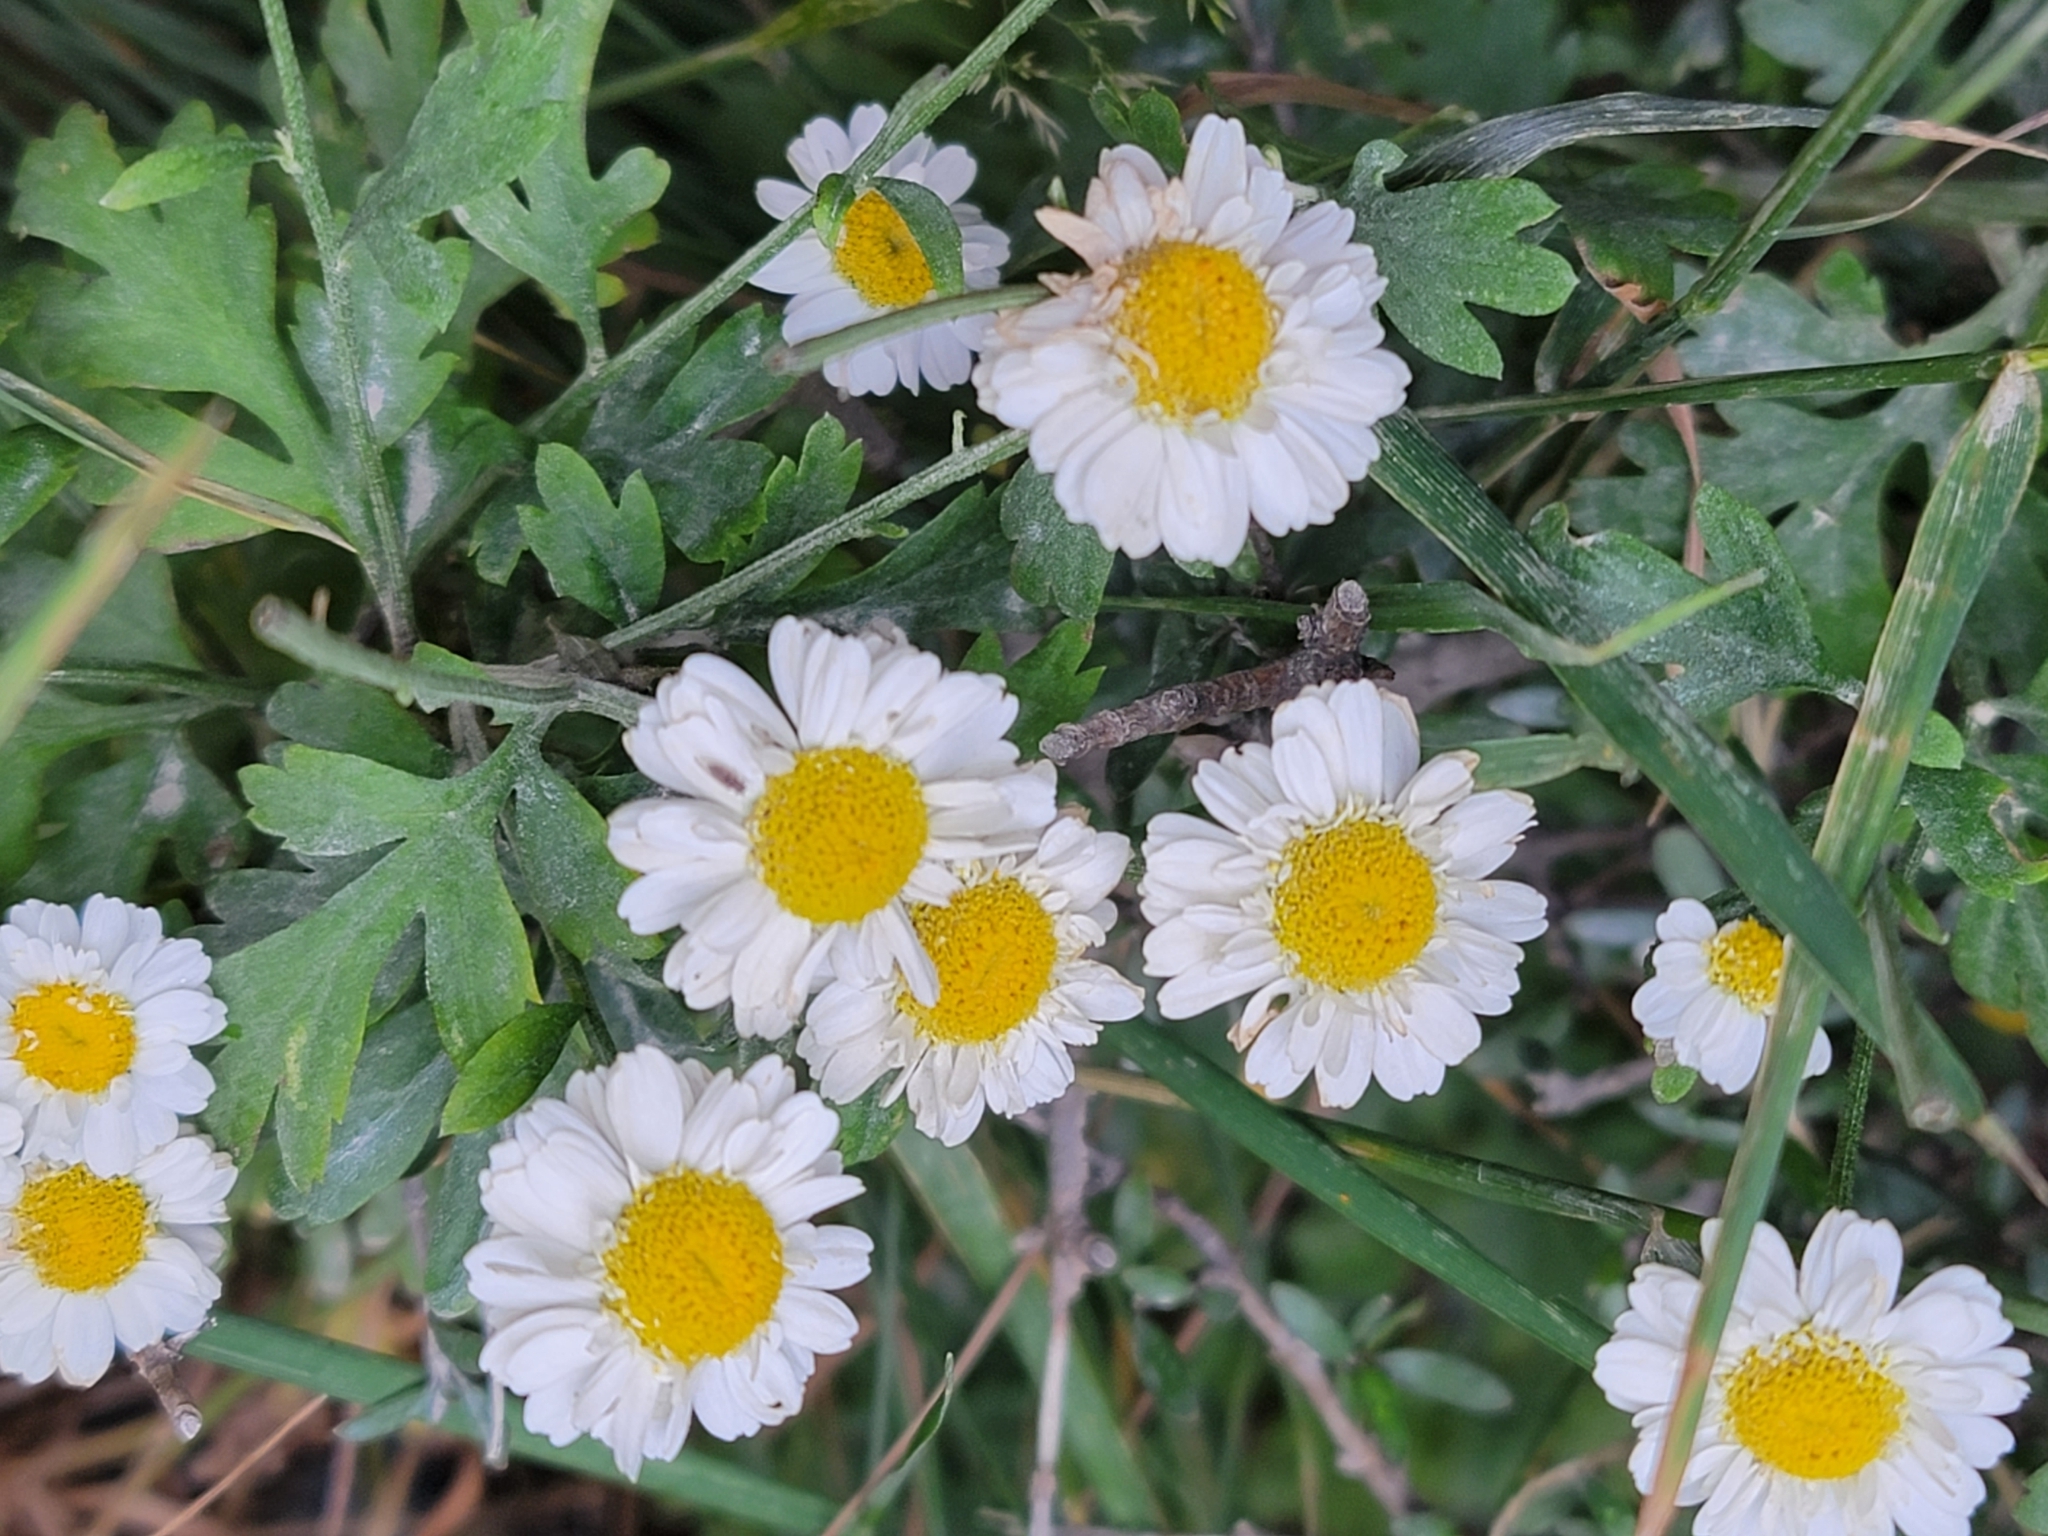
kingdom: Plantae
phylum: Tracheophyta
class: Magnoliopsida
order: Asterales
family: Asteraceae
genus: Tanacetum
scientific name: Tanacetum parthenium
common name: Feverfew
